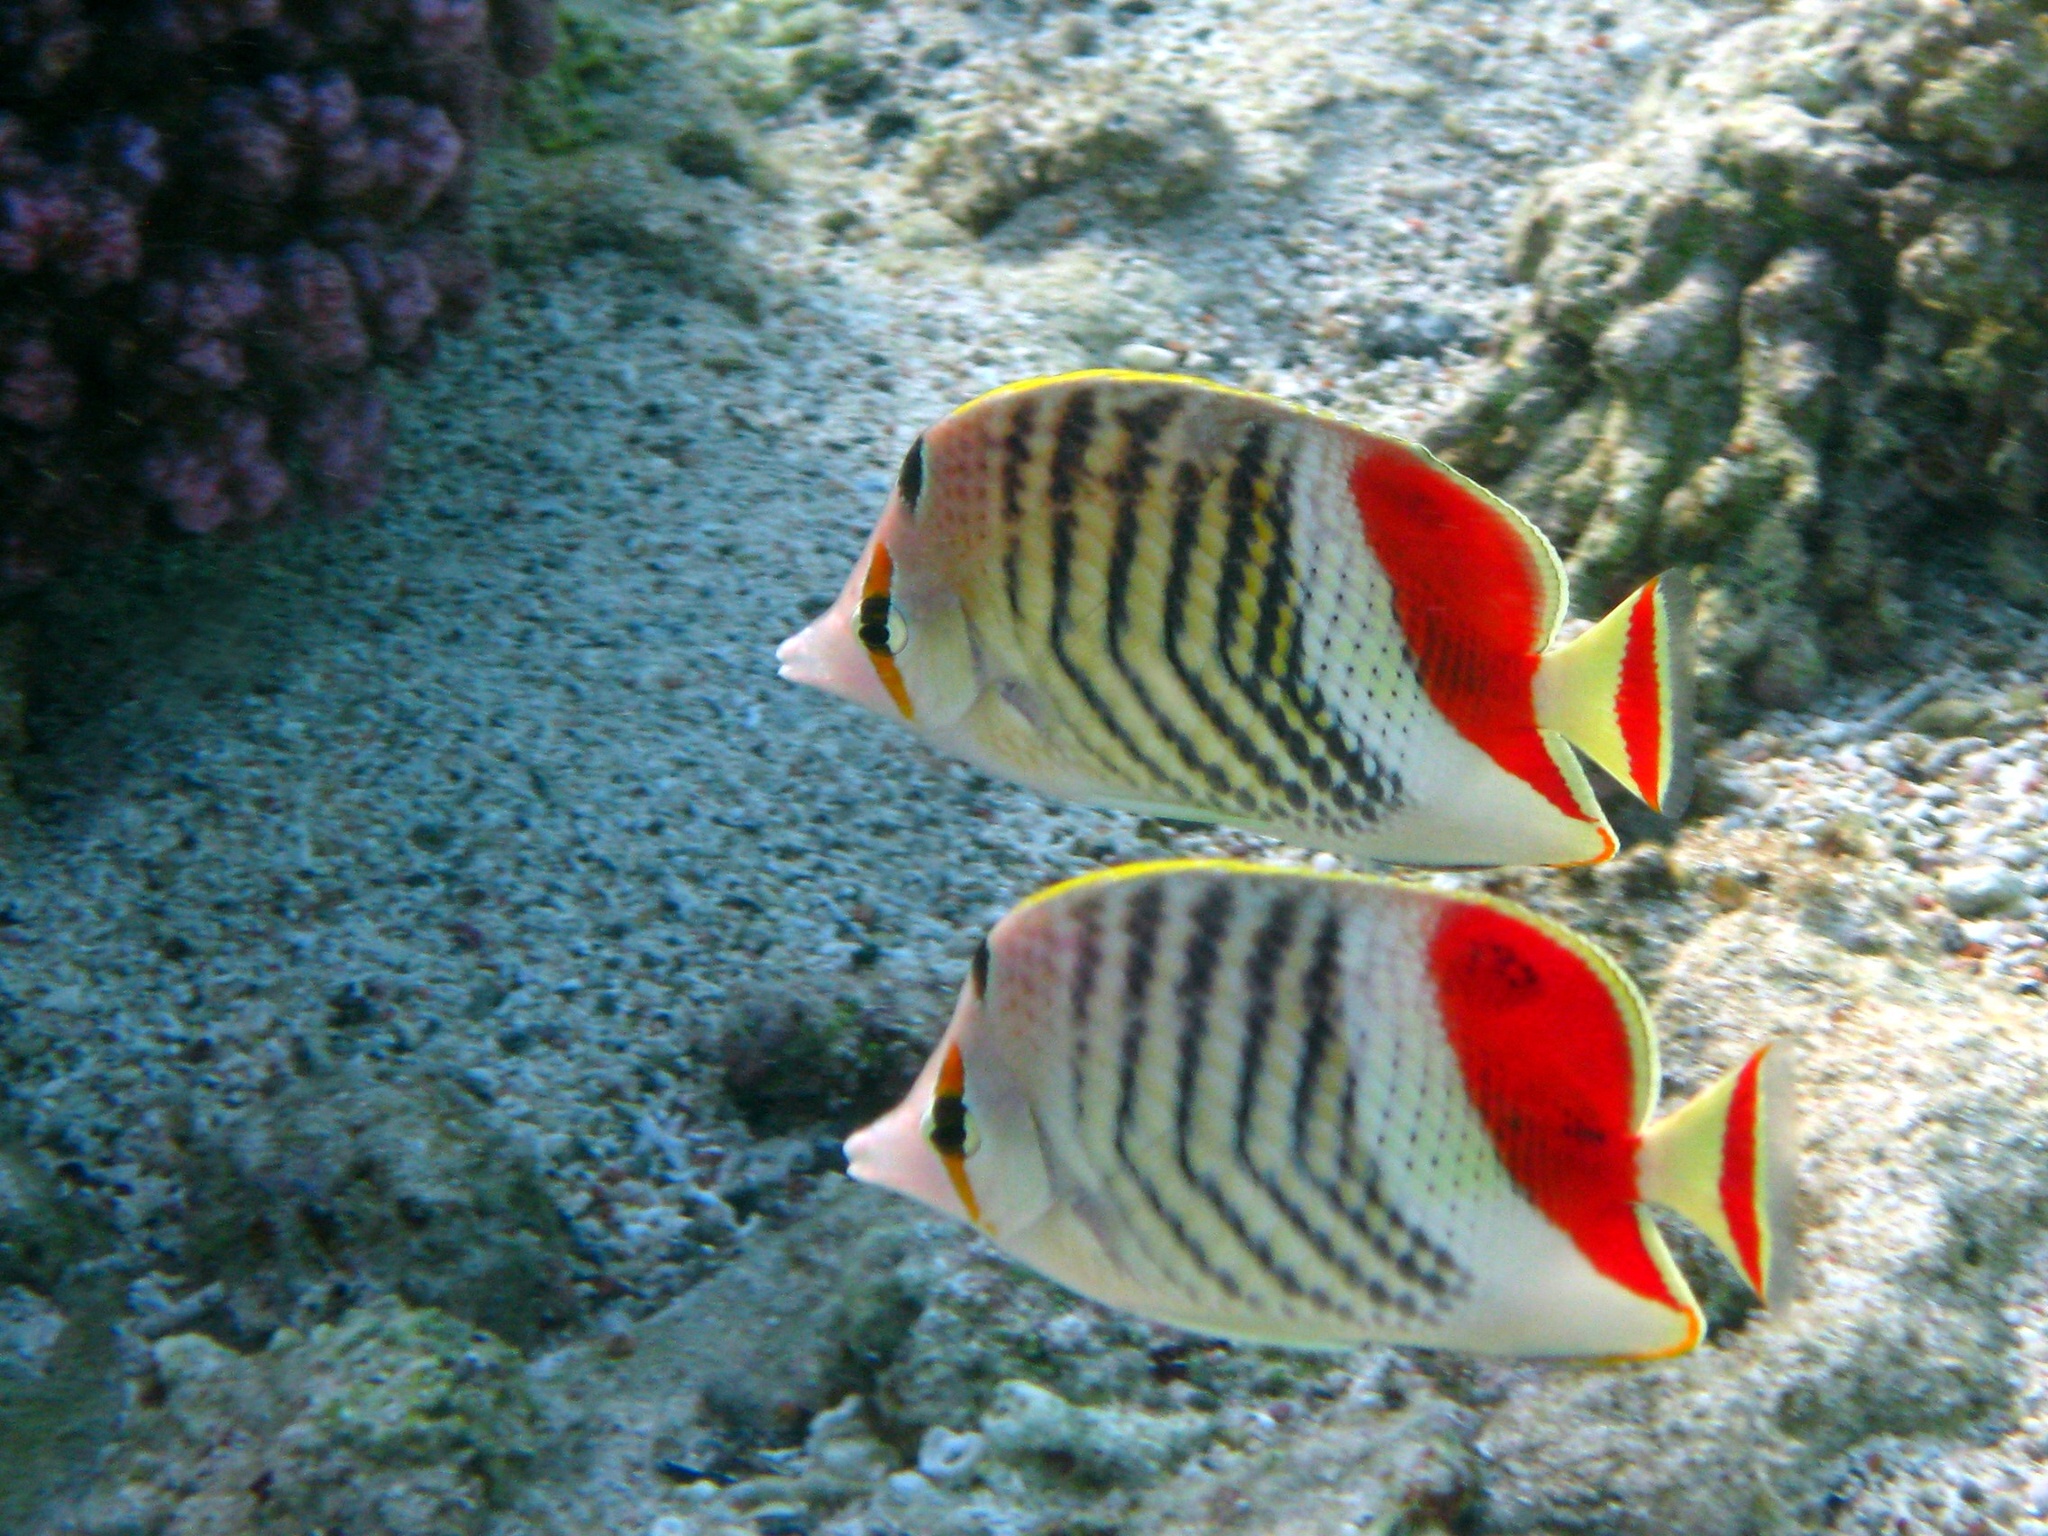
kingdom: Animalia
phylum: Chordata
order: Perciformes
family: Chaetodontidae
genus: Chaetodon
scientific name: Chaetodon paucifasciatus
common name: Crown butterflyfish
